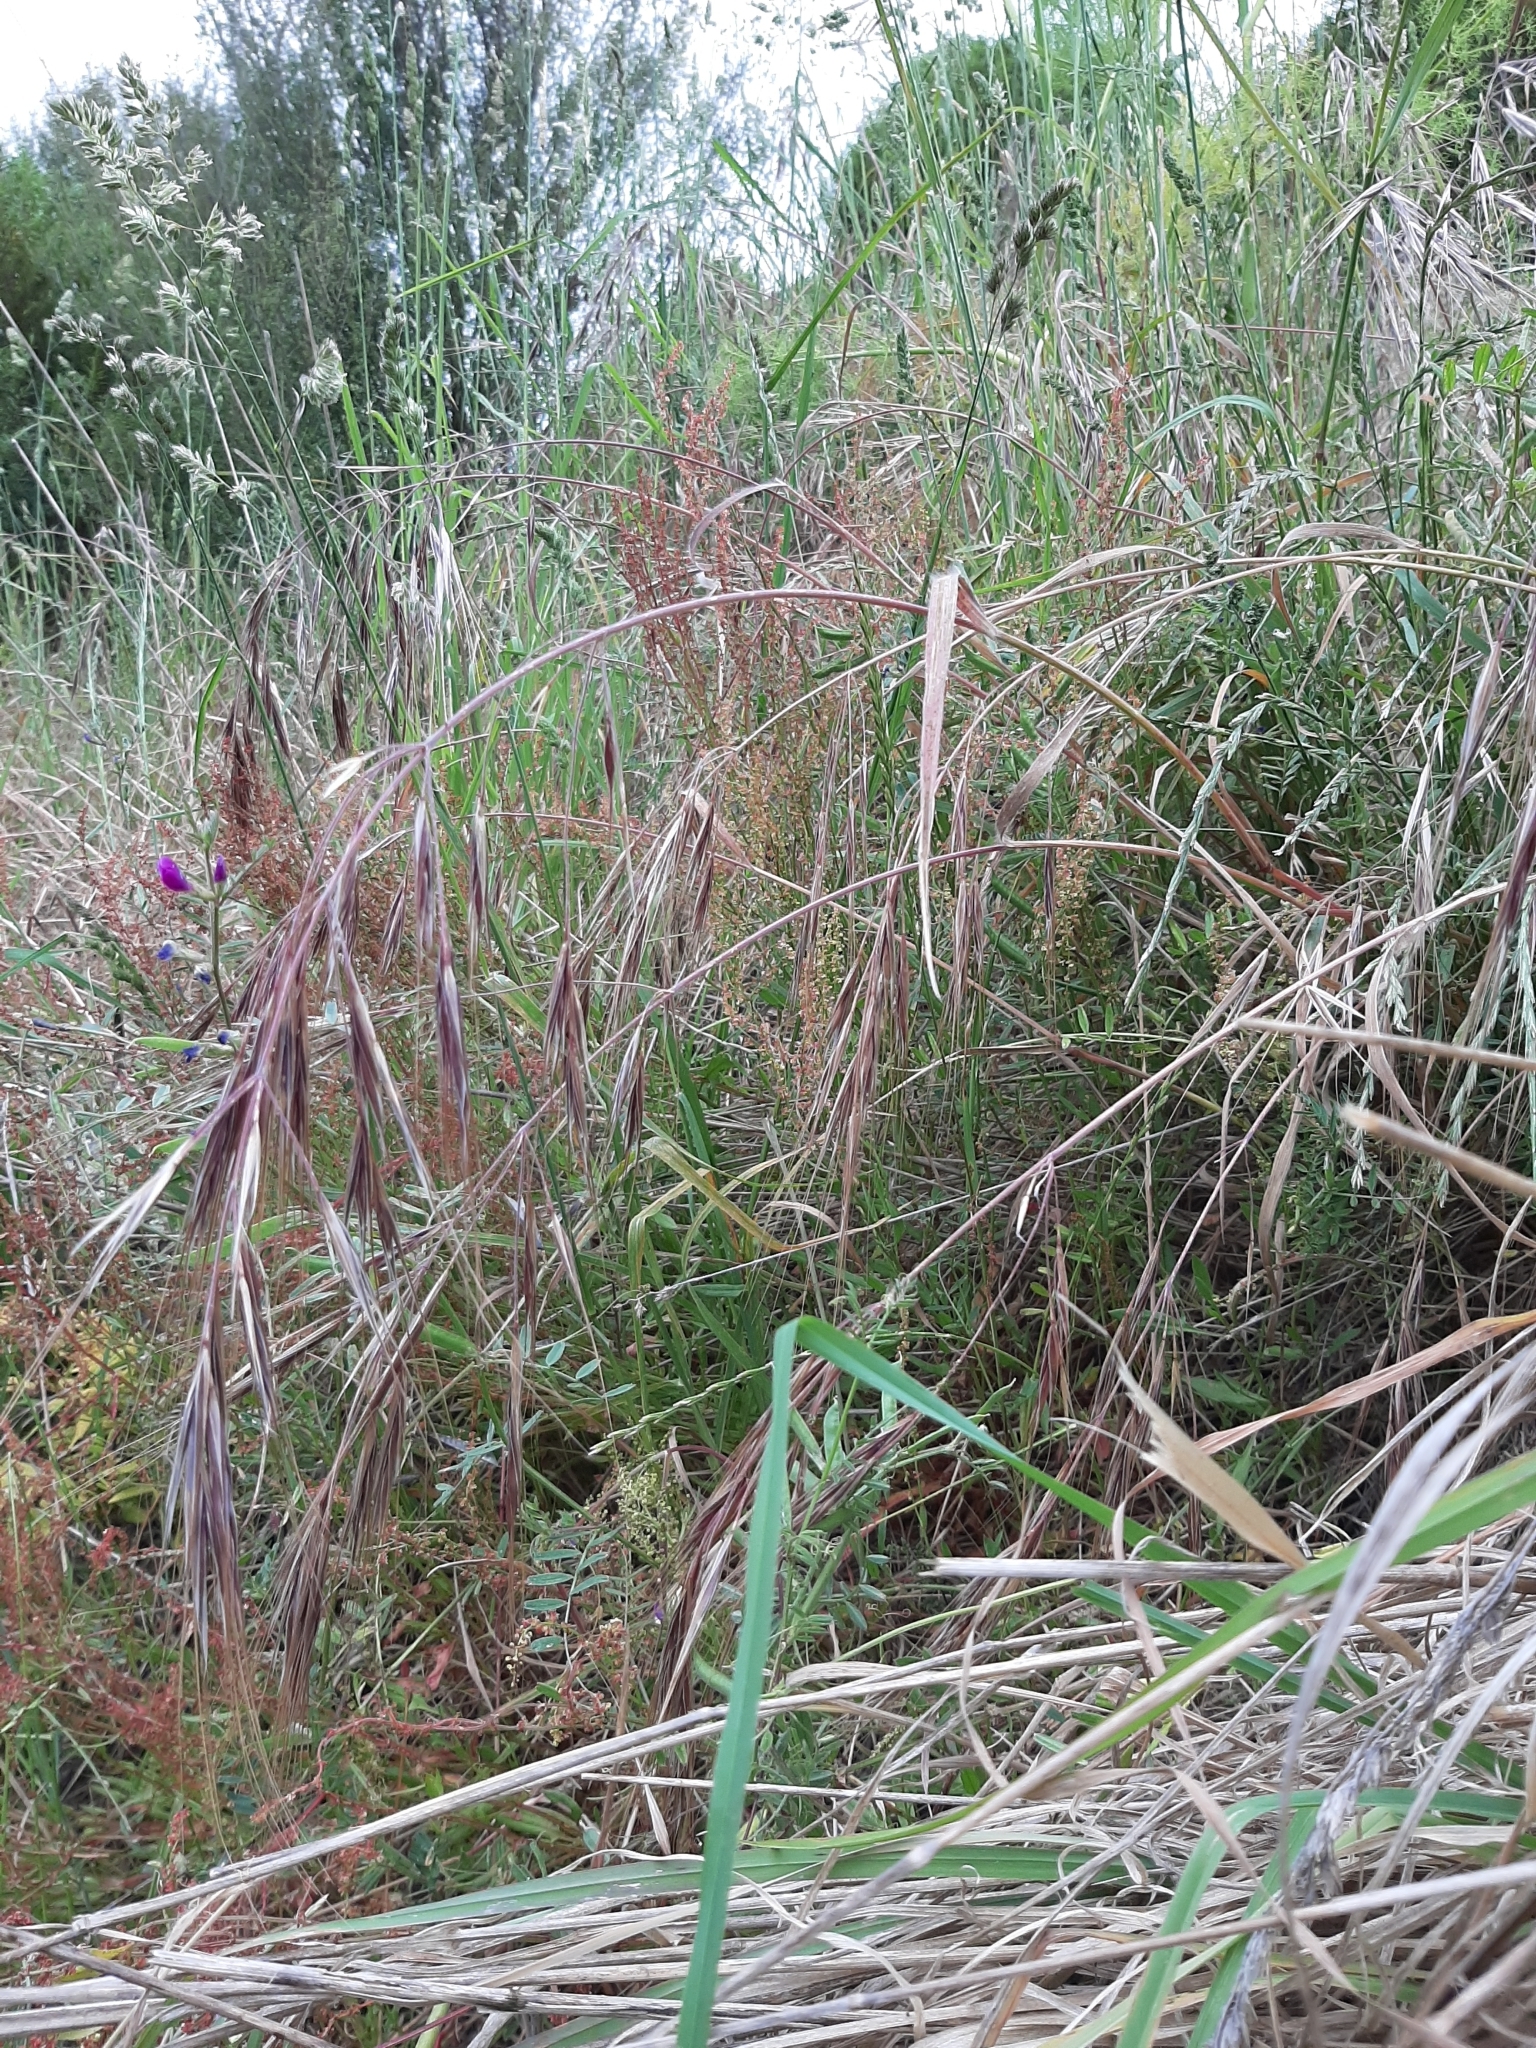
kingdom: Plantae
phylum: Tracheophyta
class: Liliopsida
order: Poales
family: Poaceae
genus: Bromus
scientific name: Bromus diandrus
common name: Ripgut brome
